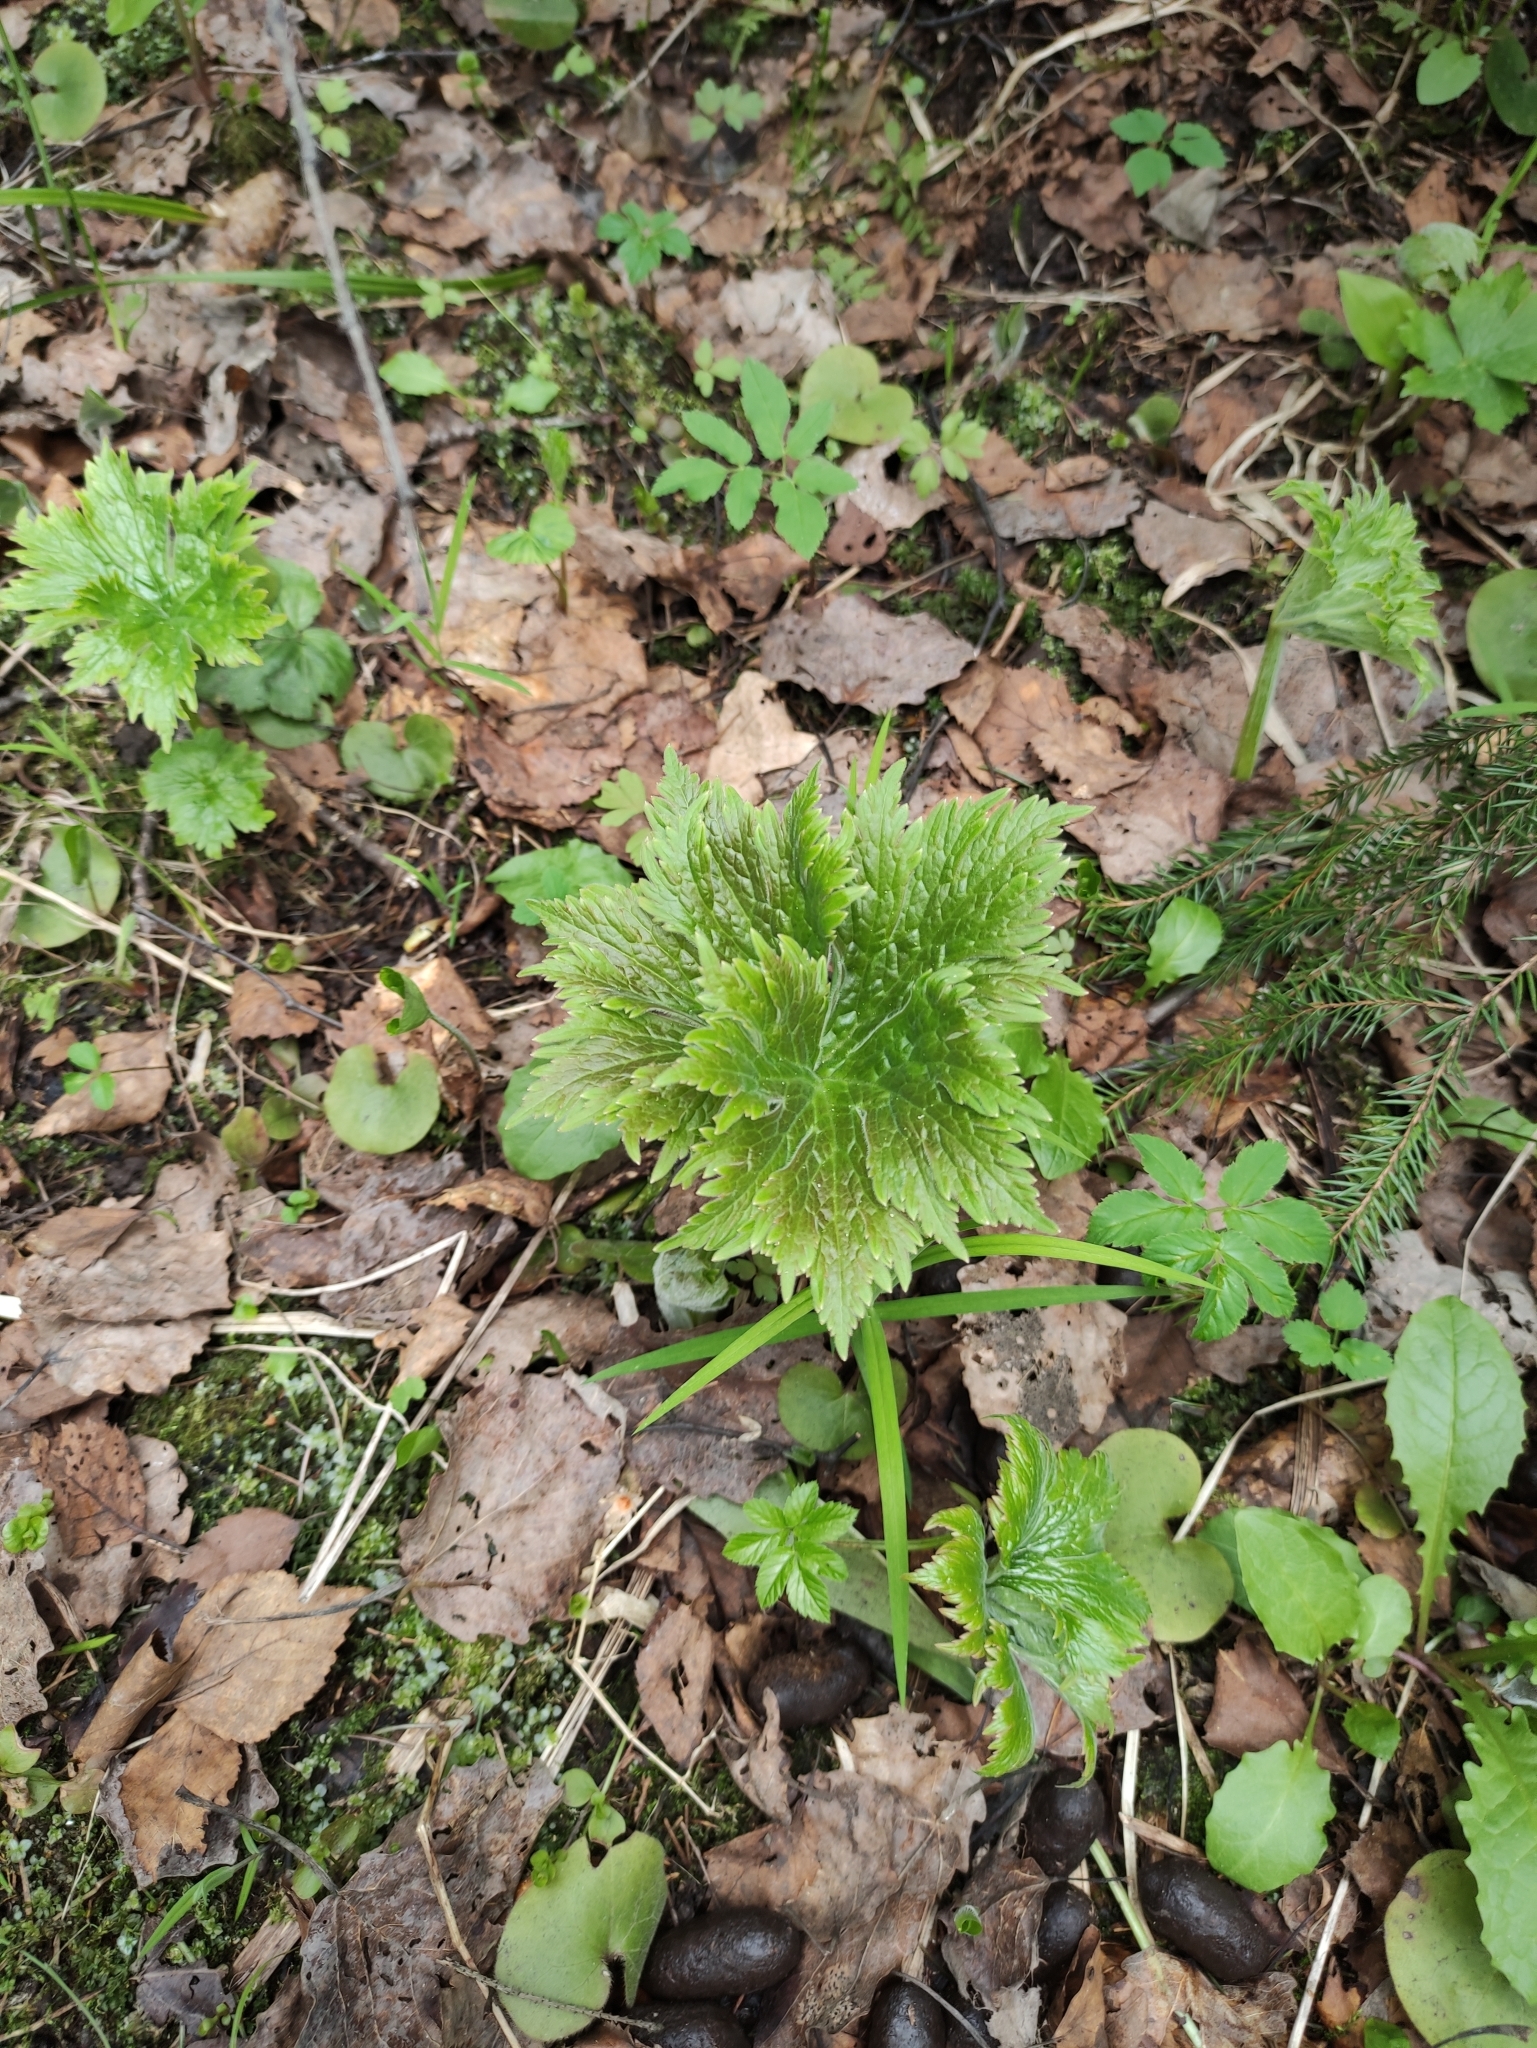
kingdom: Plantae
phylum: Tracheophyta
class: Magnoliopsida
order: Ranunculales
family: Ranunculaceae
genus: Aconitum
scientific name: Aconitum septentrionale
